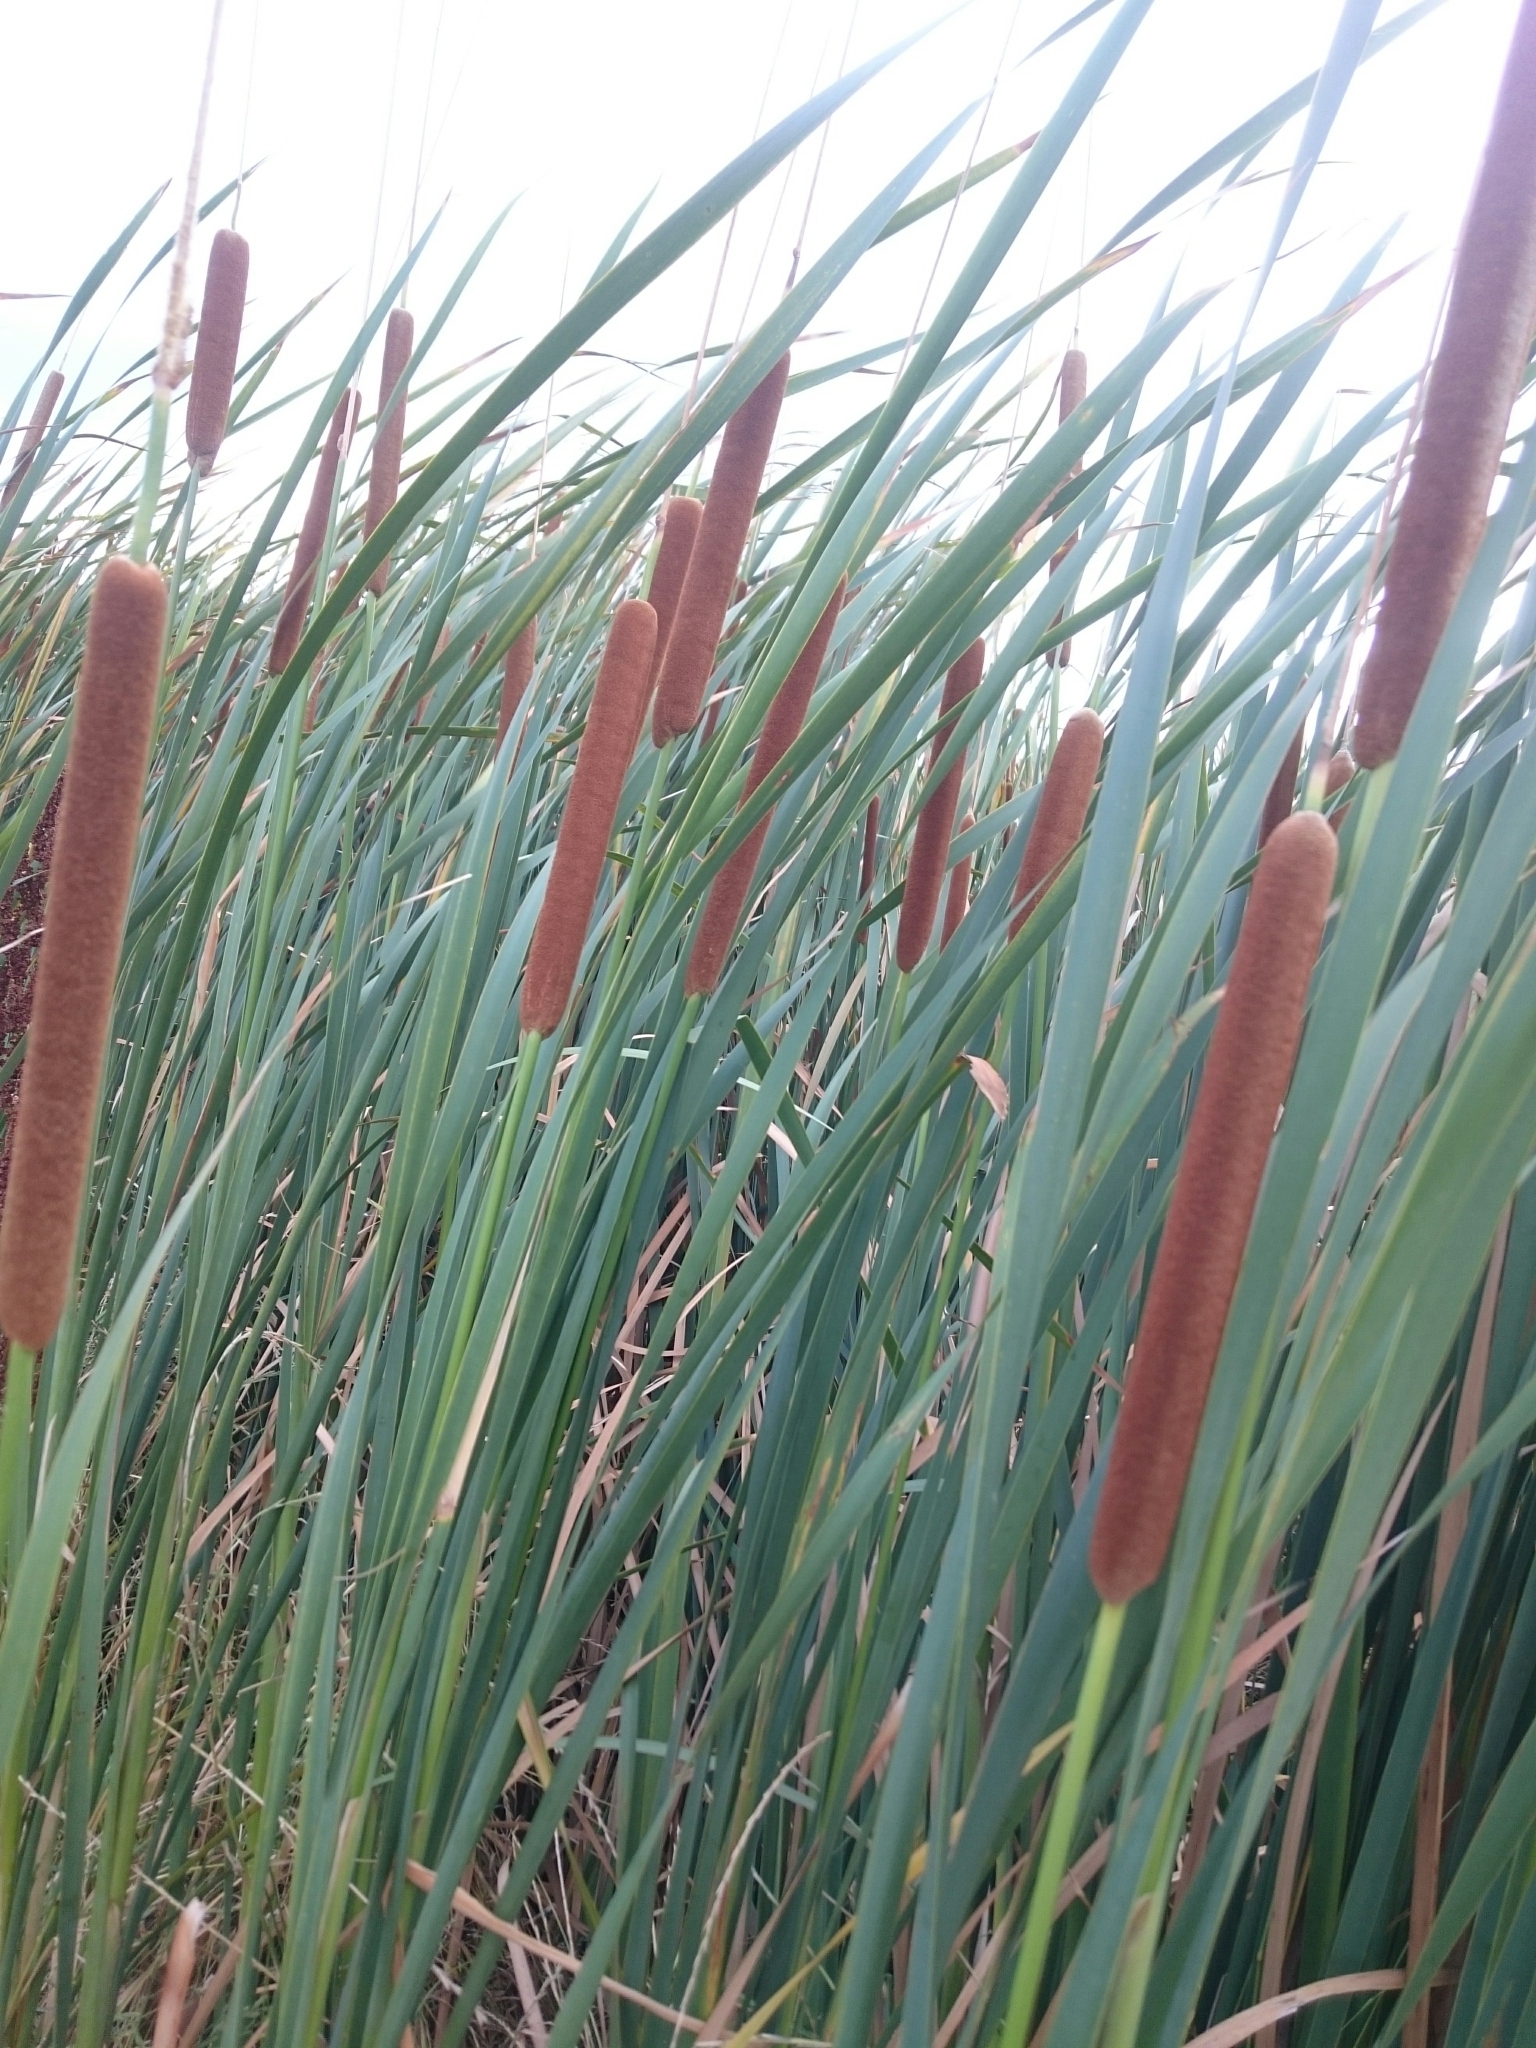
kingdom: Plantae
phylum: Tracheophyta
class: Liliopsida
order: Poales
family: Typhaceae
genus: Typha
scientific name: Typha capensis
